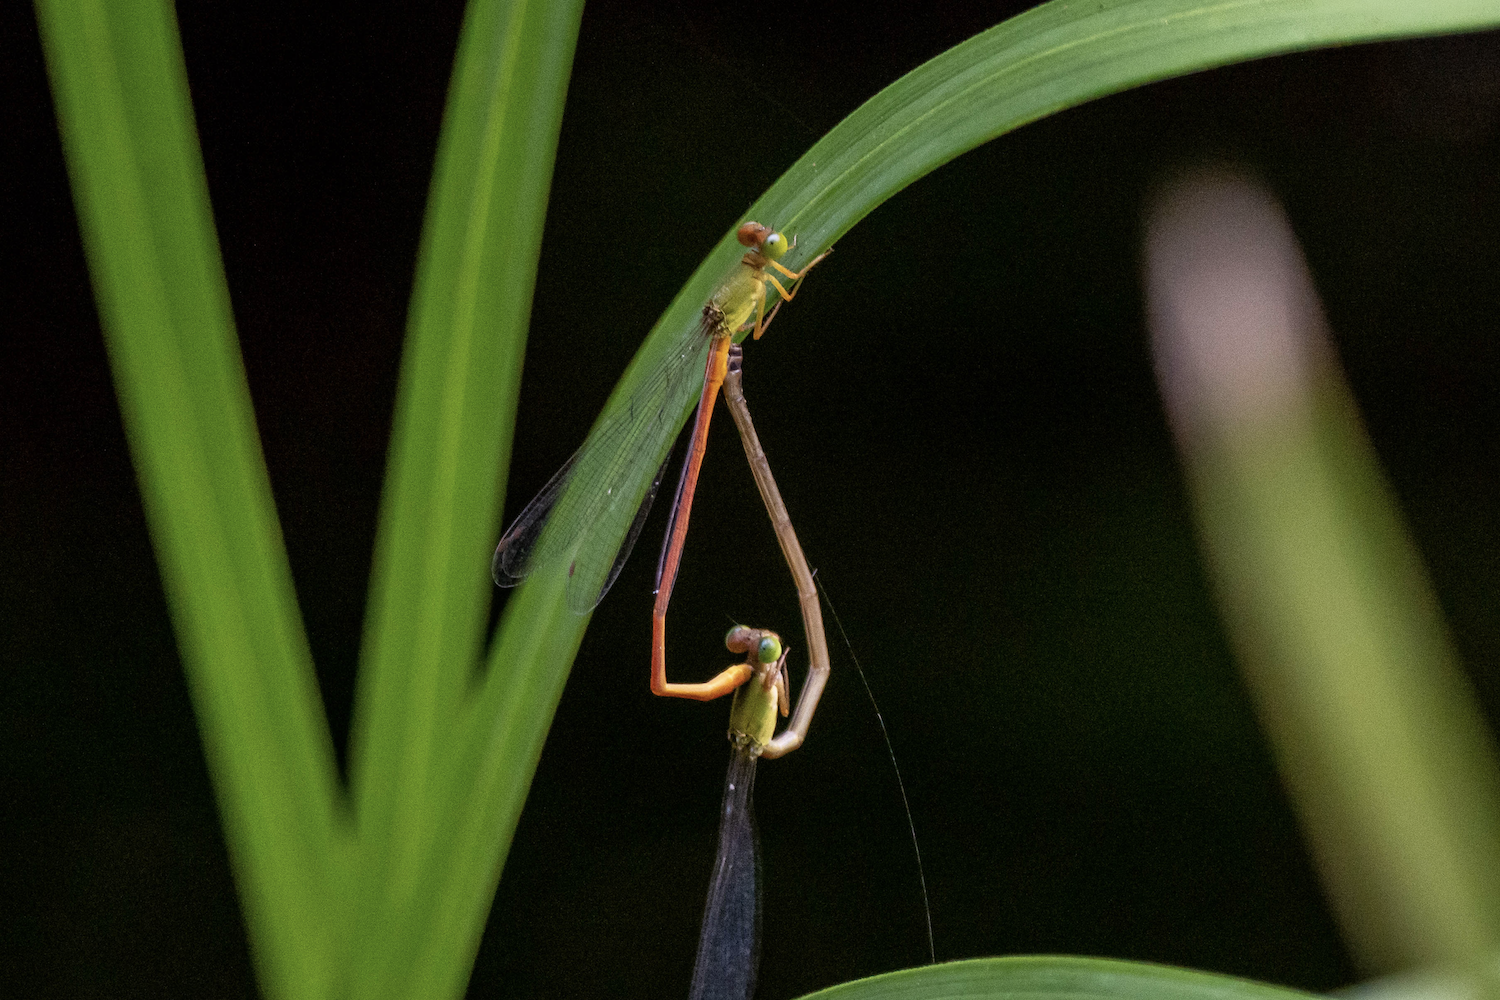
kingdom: Animalia
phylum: Arthropoda
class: Insecta
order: Odonata
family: Coenagrionidae
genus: Ceriagrion
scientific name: Ceriagrion auranticum
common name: Orange-tailed sprite
